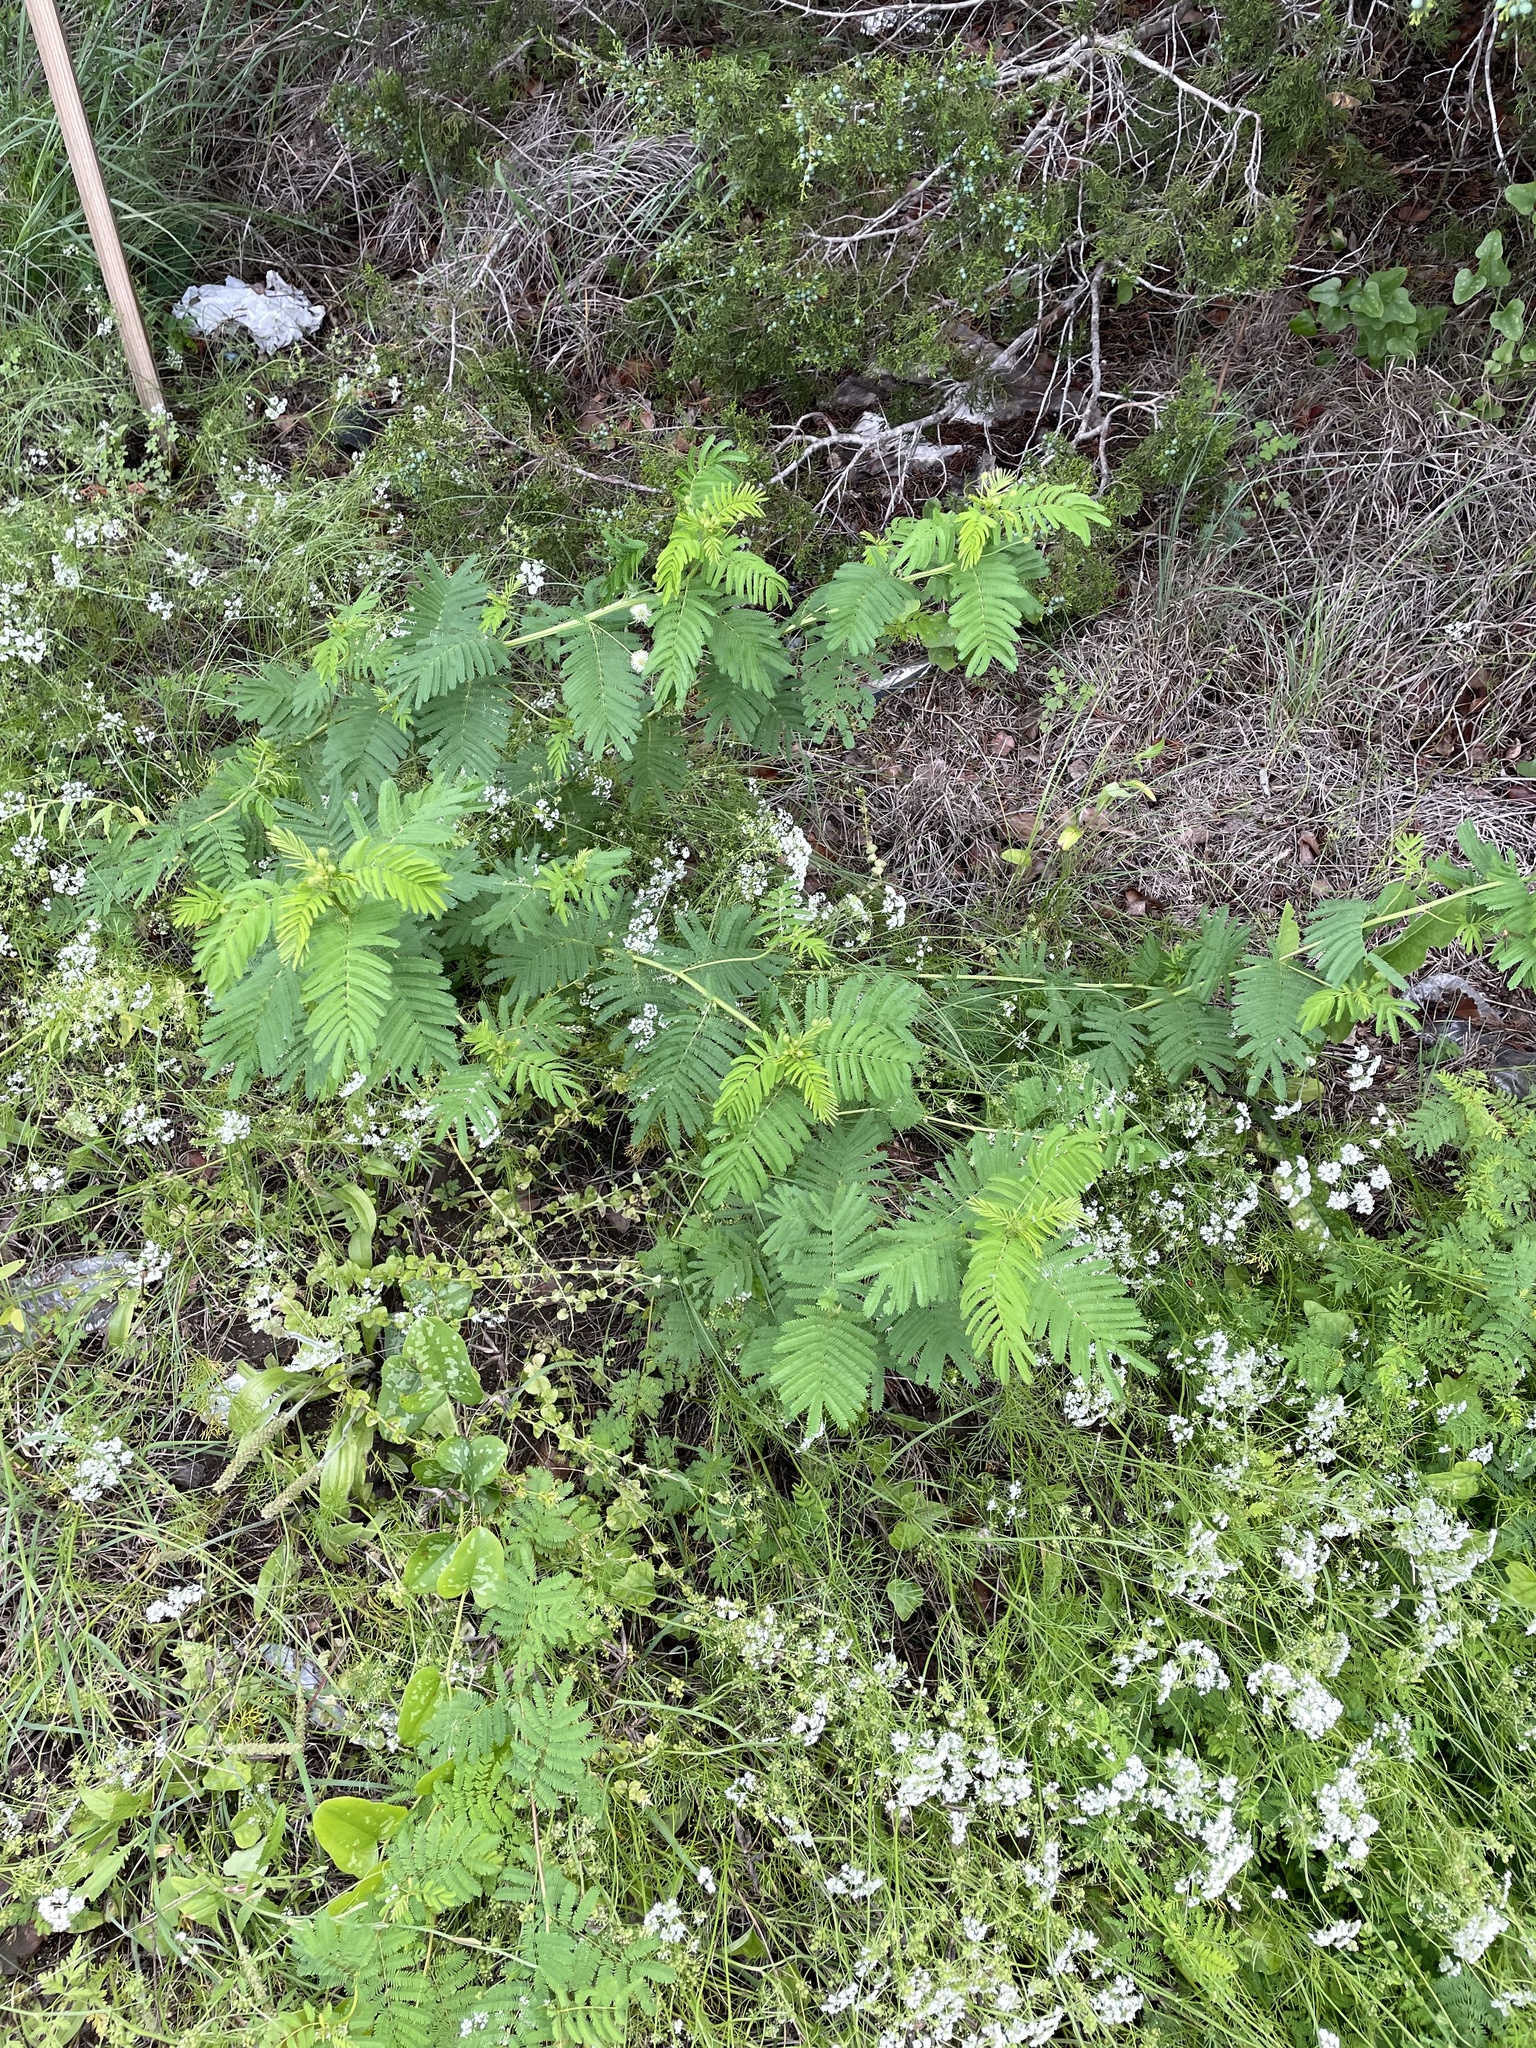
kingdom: Plantae
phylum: Tracheophyta
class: Magnoliopsida
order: Fabales
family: Fabaceae
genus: Desmanthus
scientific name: Desmanthus illinoensis
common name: Illinois bundle-flower
